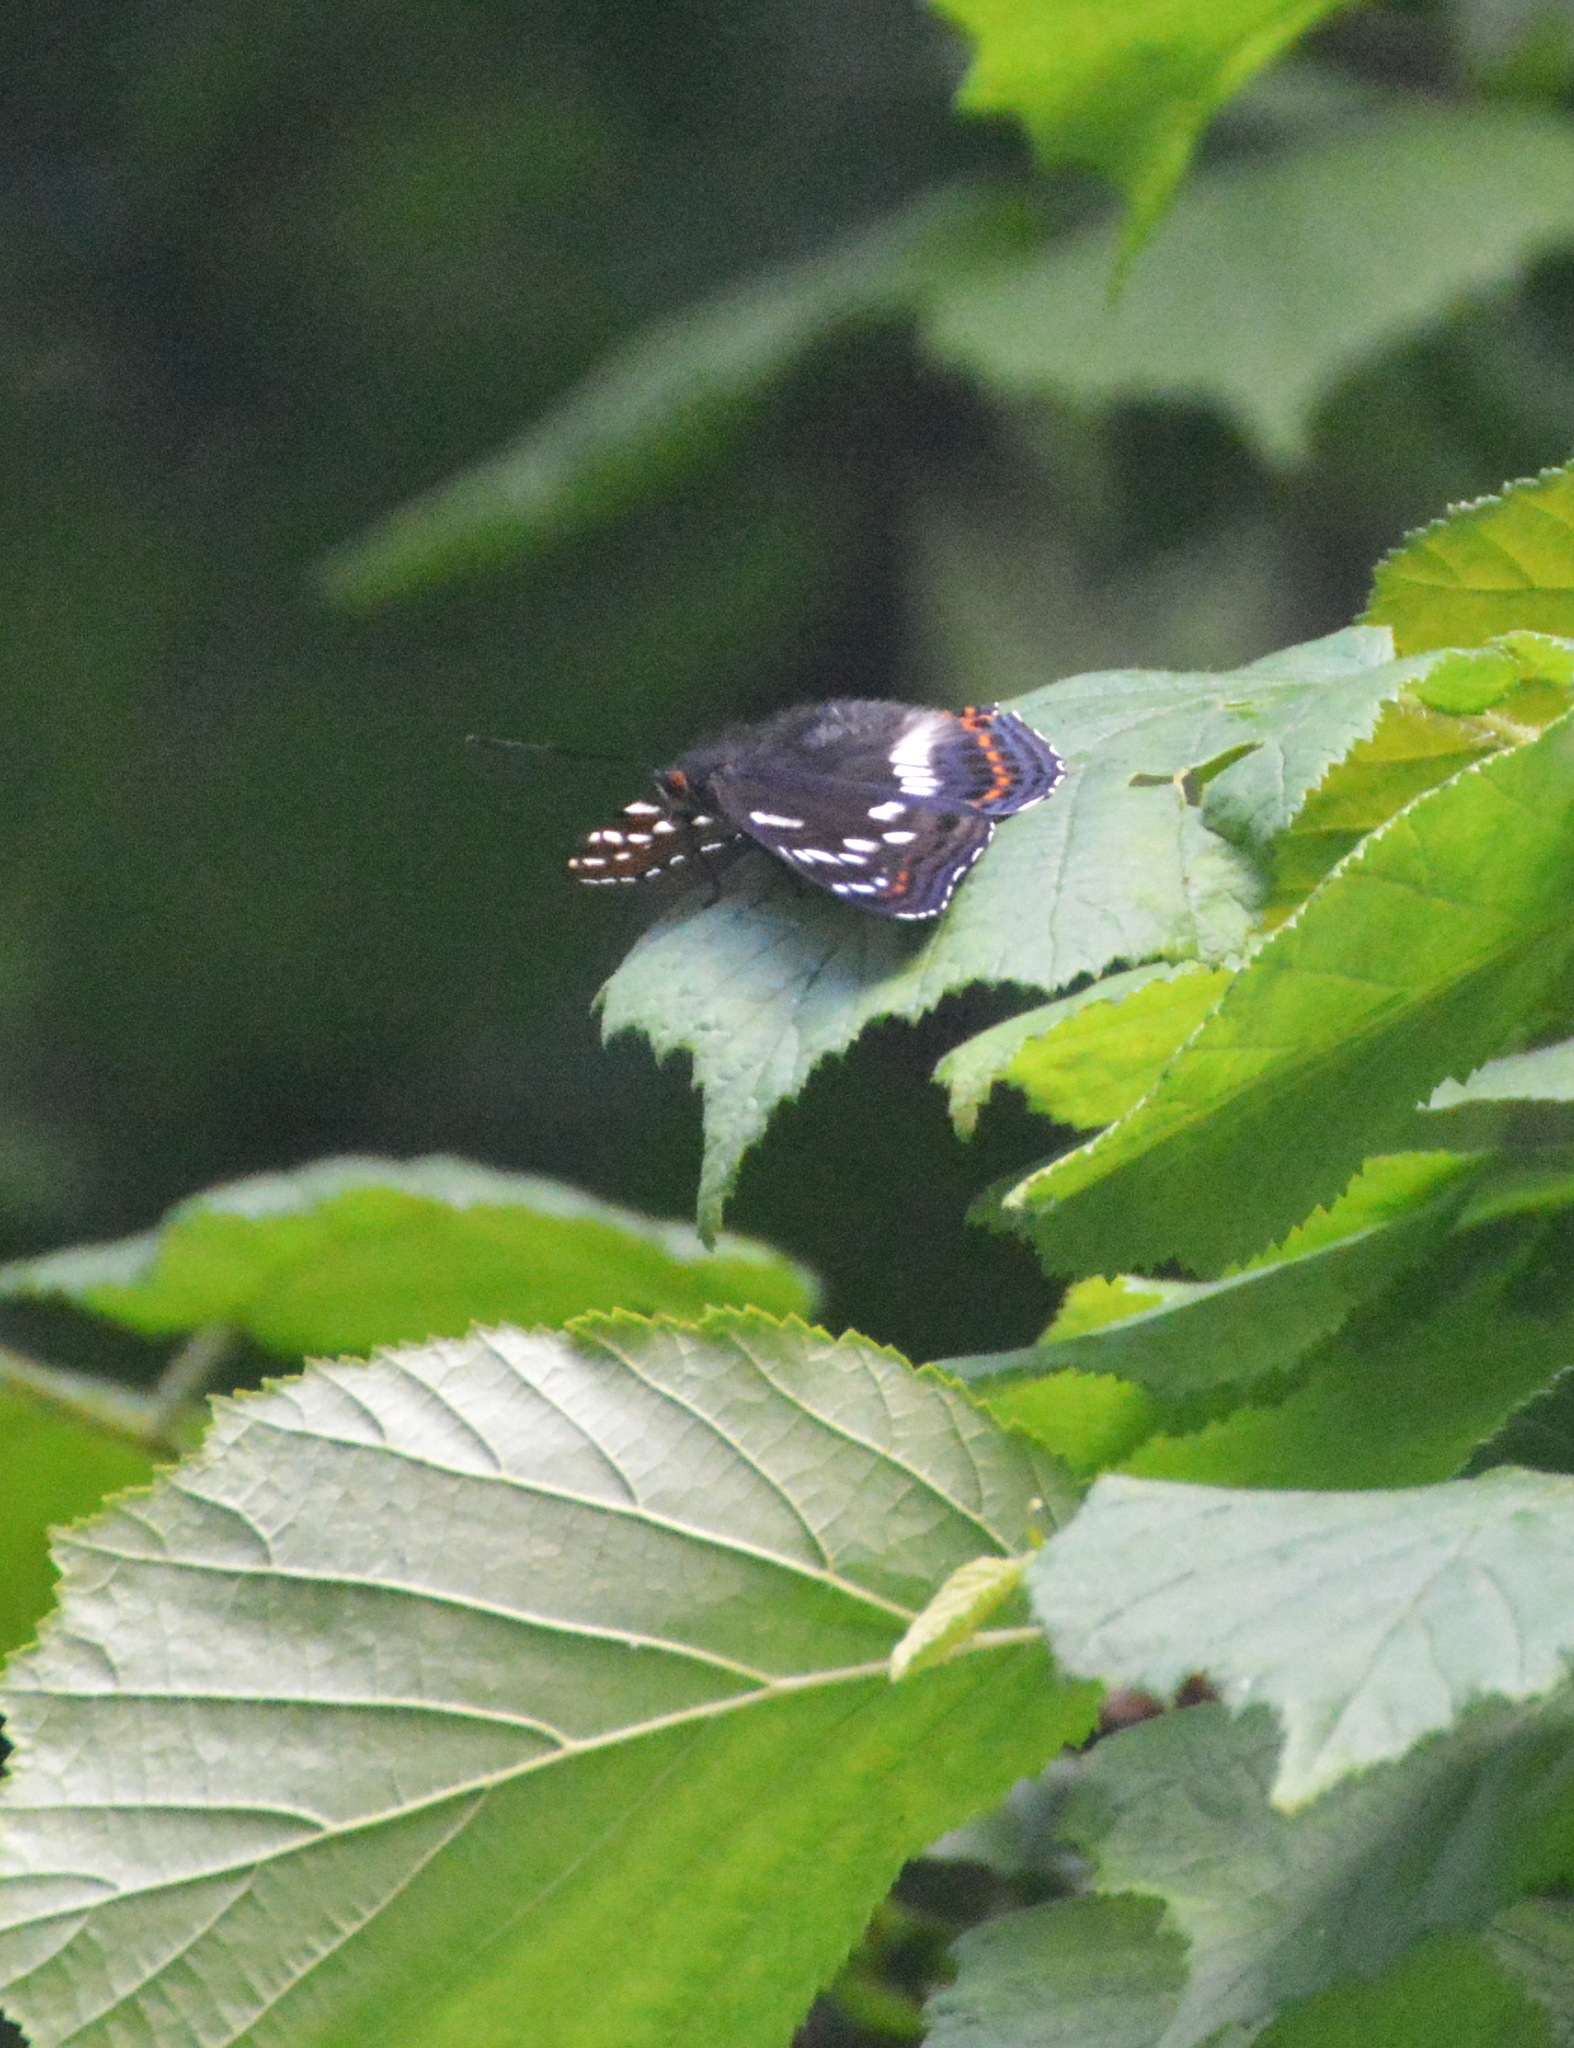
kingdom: Animalia
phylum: Arthropoda
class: Insecta
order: Lepidoptera
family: Nymphalidae
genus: Limenitis
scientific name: Limenitis populi
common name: Poplar admiral
